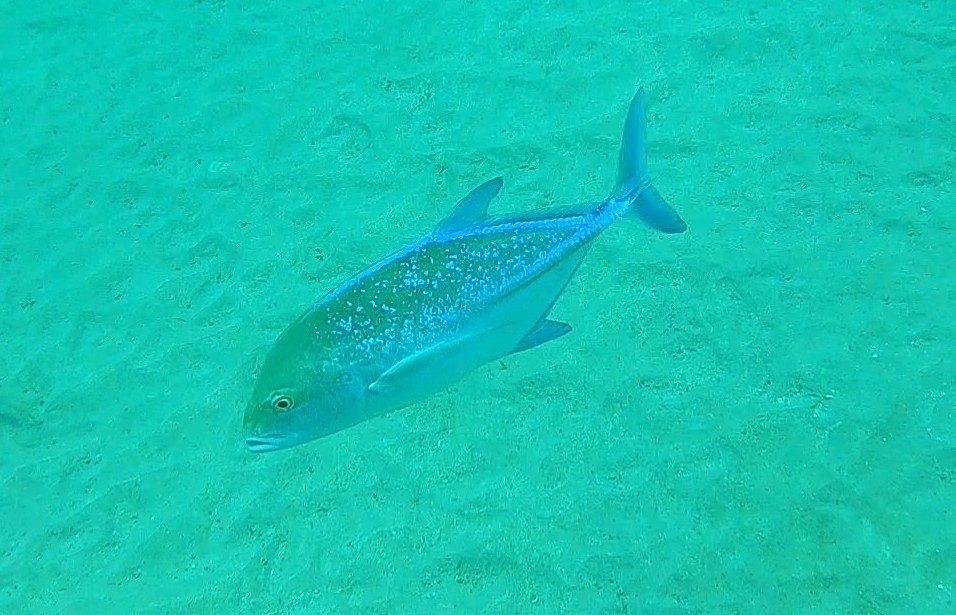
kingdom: Animalia
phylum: Chordata
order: Perciformes
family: Carangidae
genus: Caranx
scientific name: Caranx melampygus
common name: Bluefin trevally
